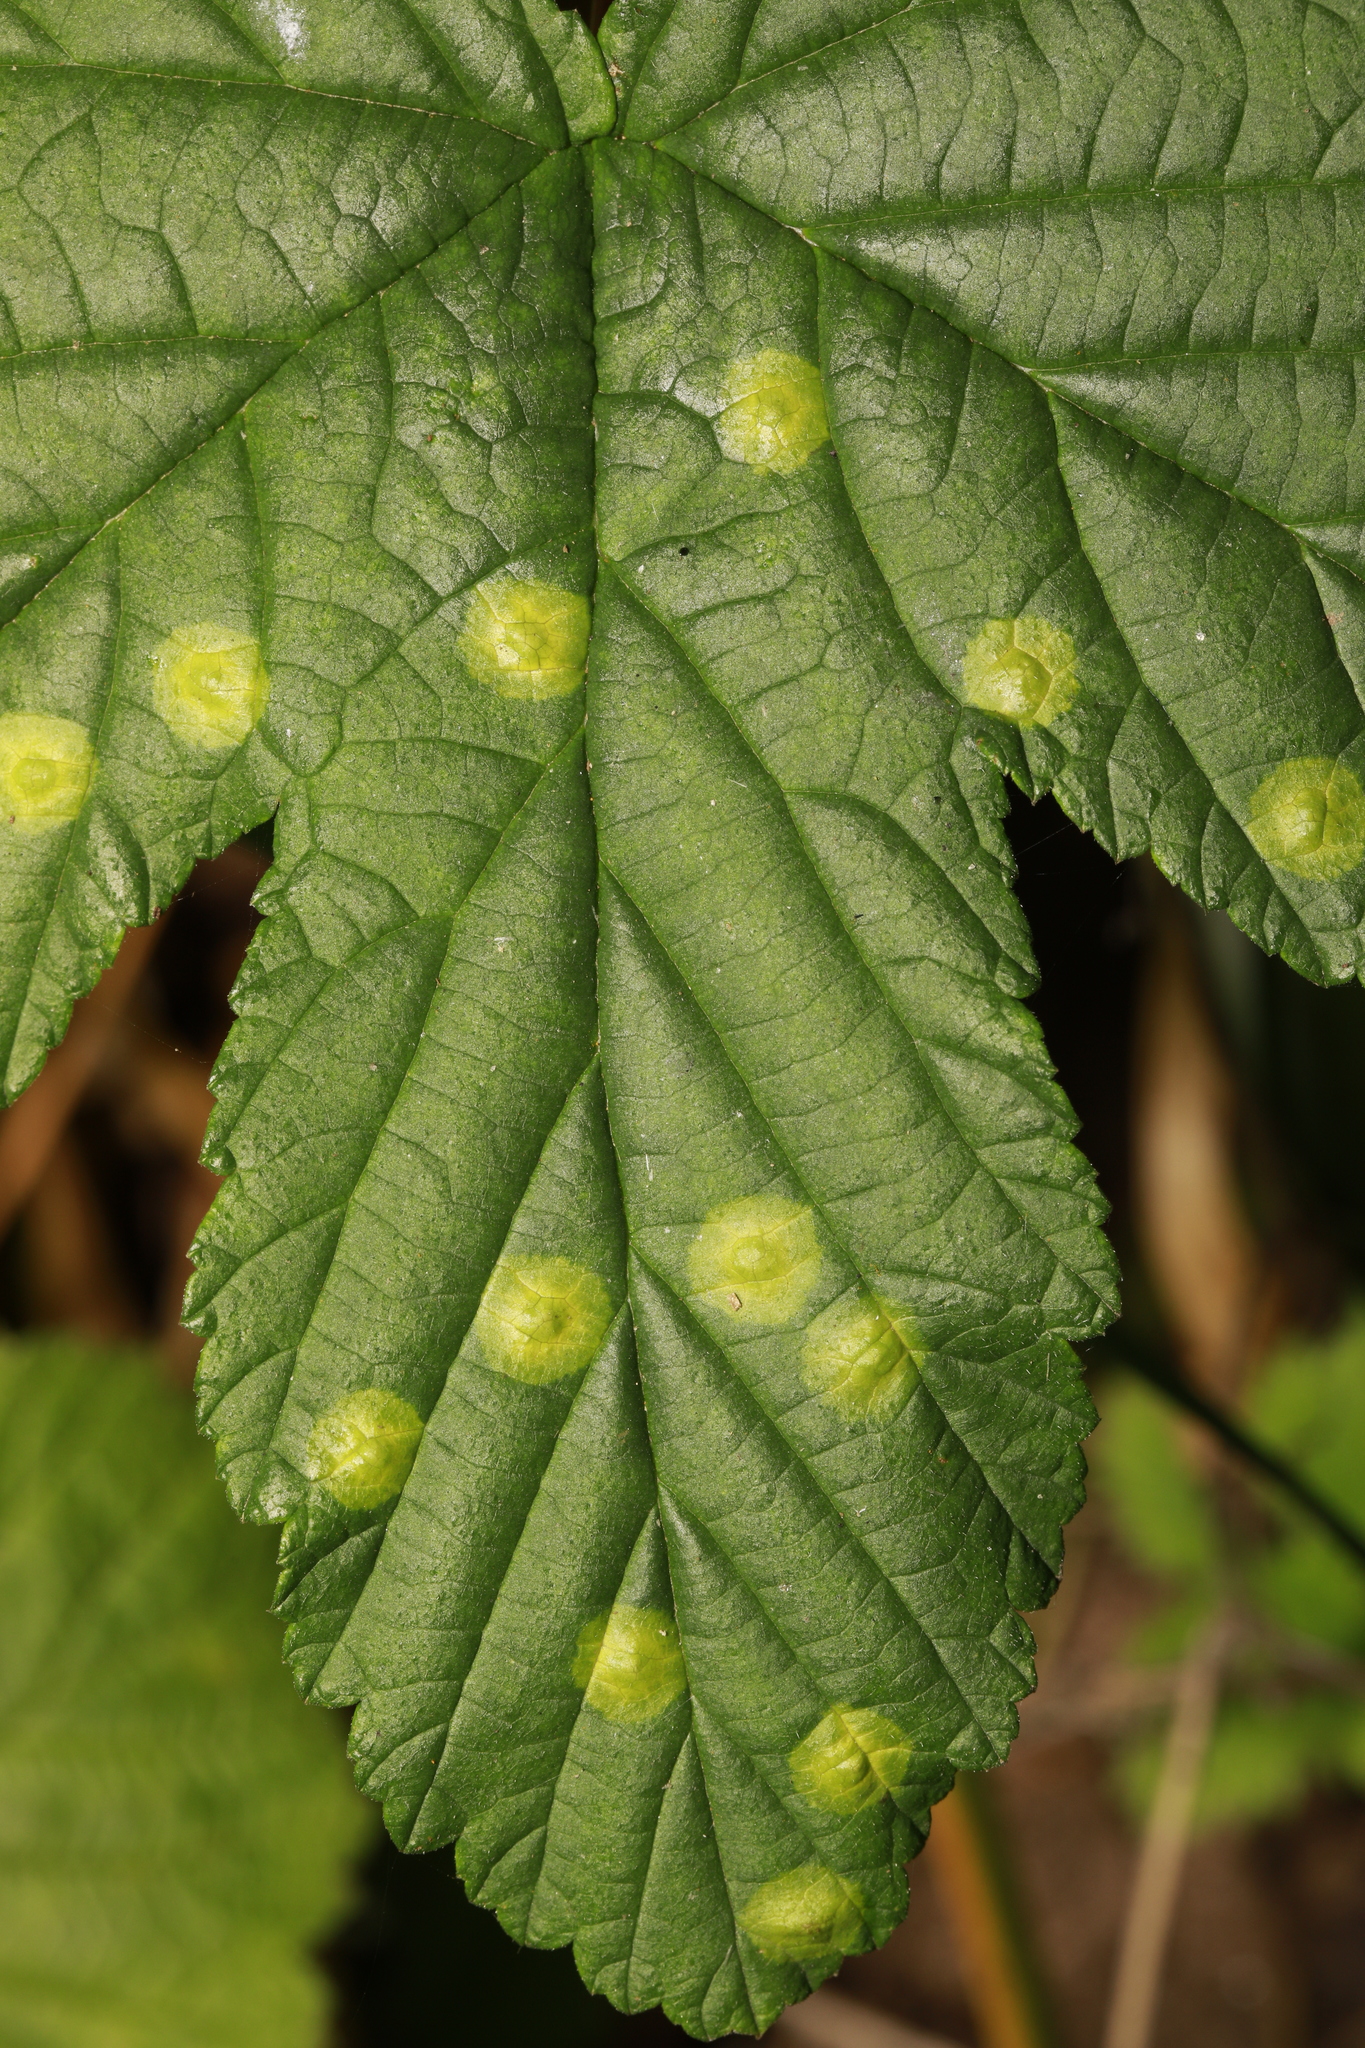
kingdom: Animalia
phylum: Arthropoda
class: Insecta
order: Diptera
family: Cecidomyiidae
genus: Dasineura
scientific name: Dasineura pustulans
